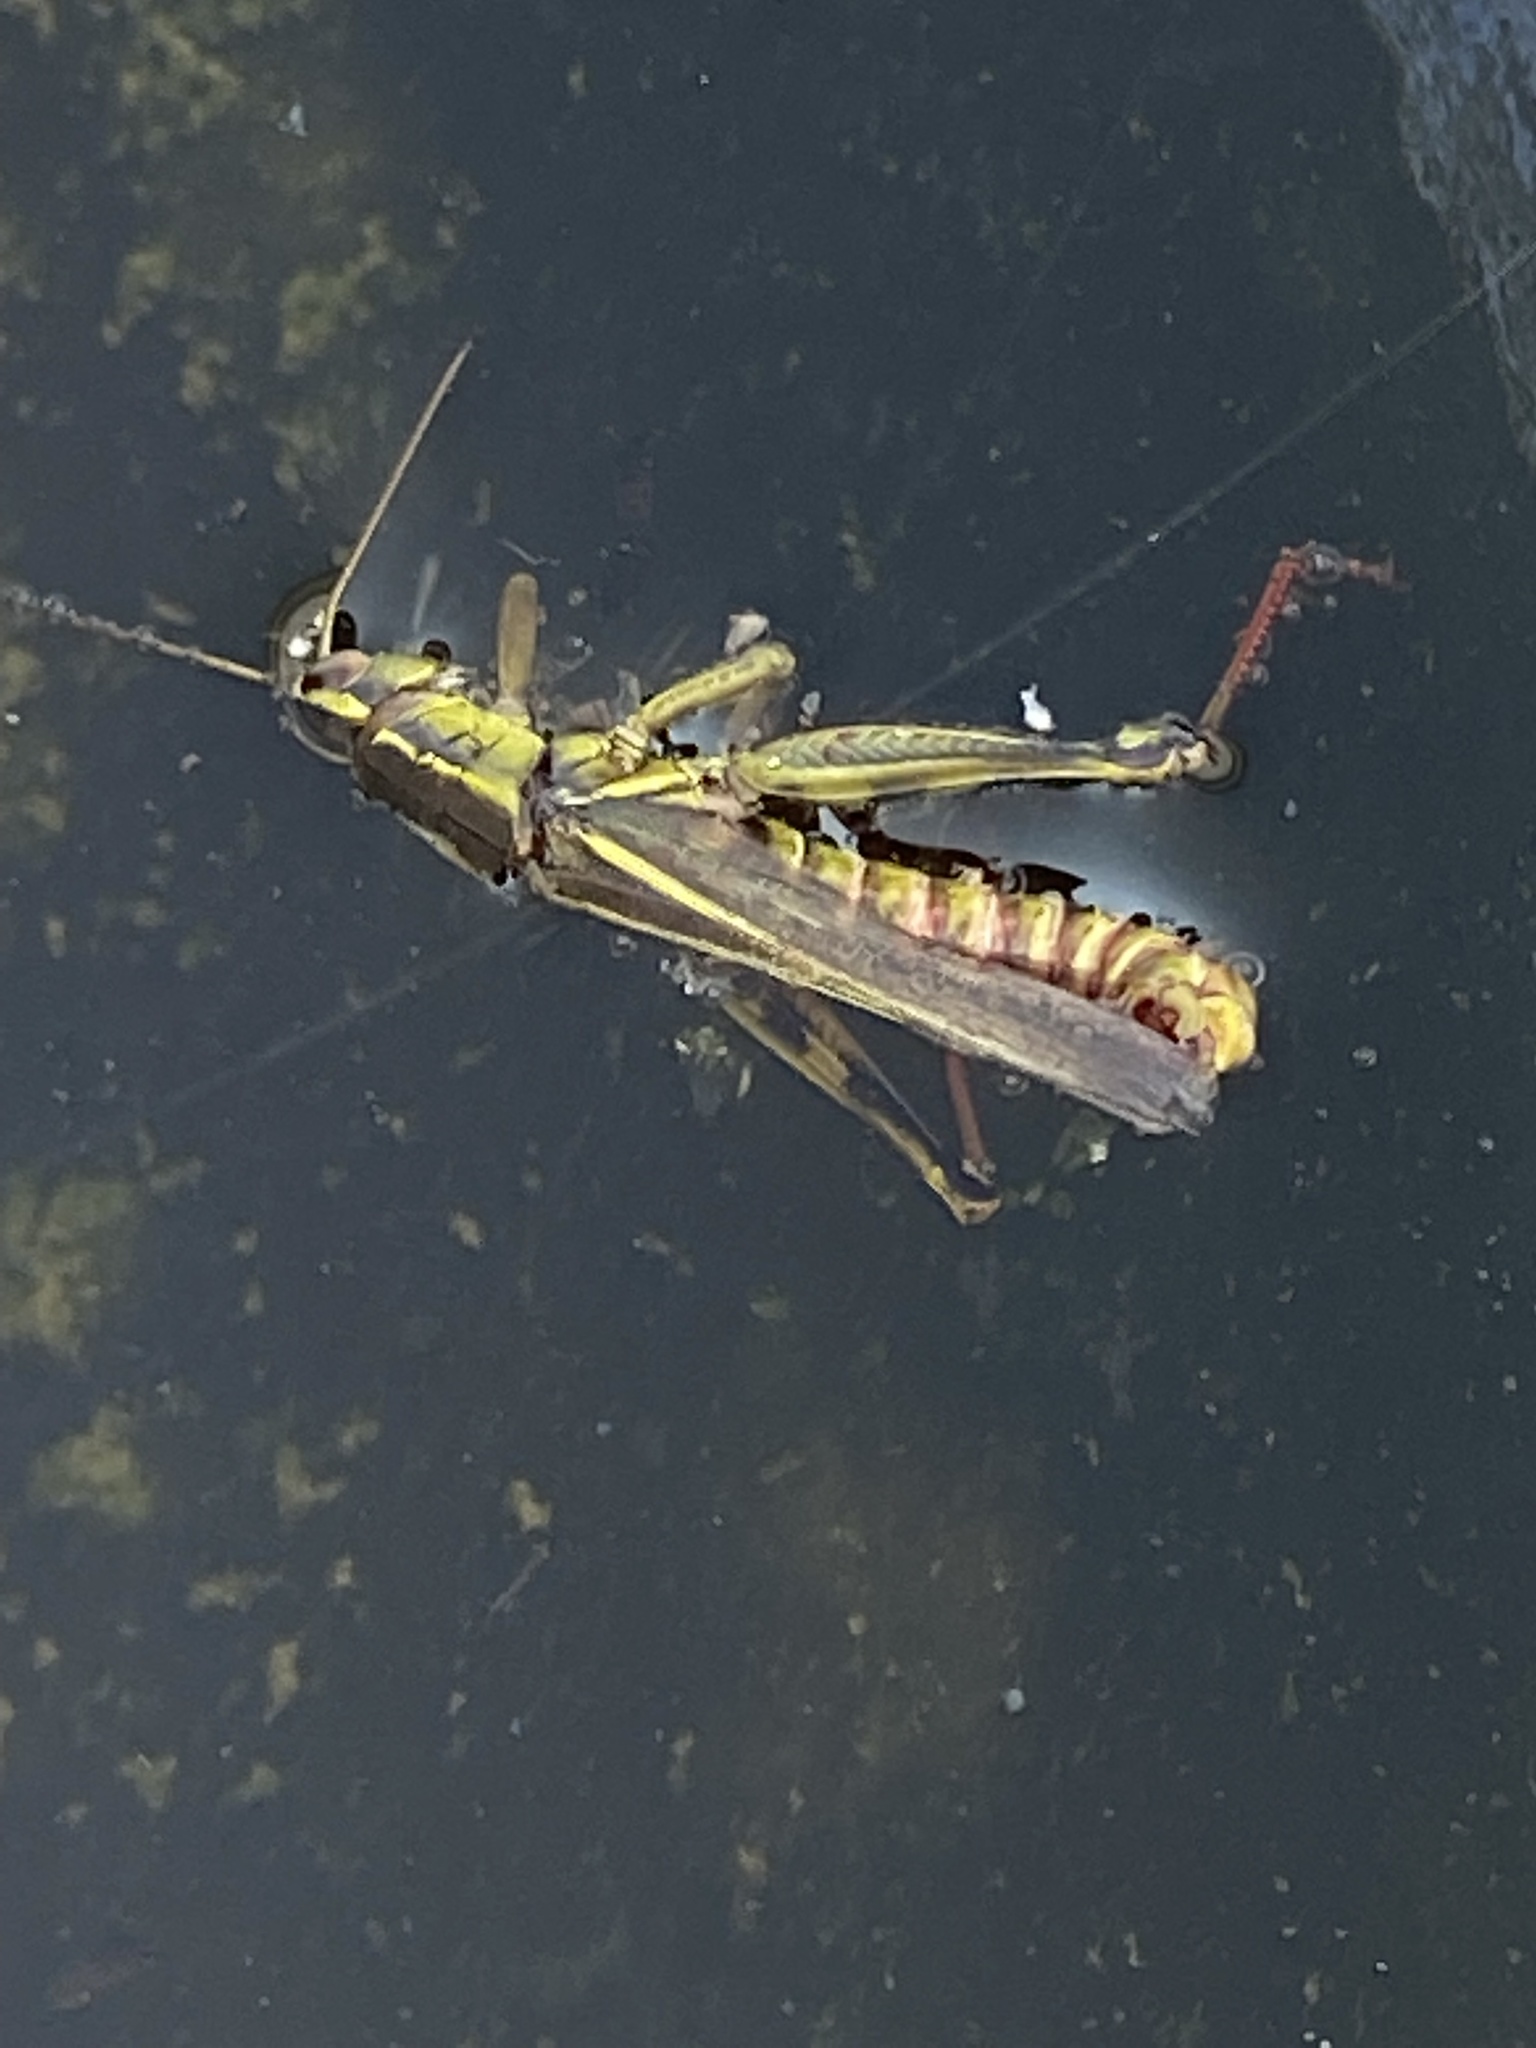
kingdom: Animalia
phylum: Arthropoda
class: Insecta
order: Orthoptera
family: Acrididae
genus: Melanoplus
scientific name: Melanoplus bivittatus
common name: Two-striped grasshopper
